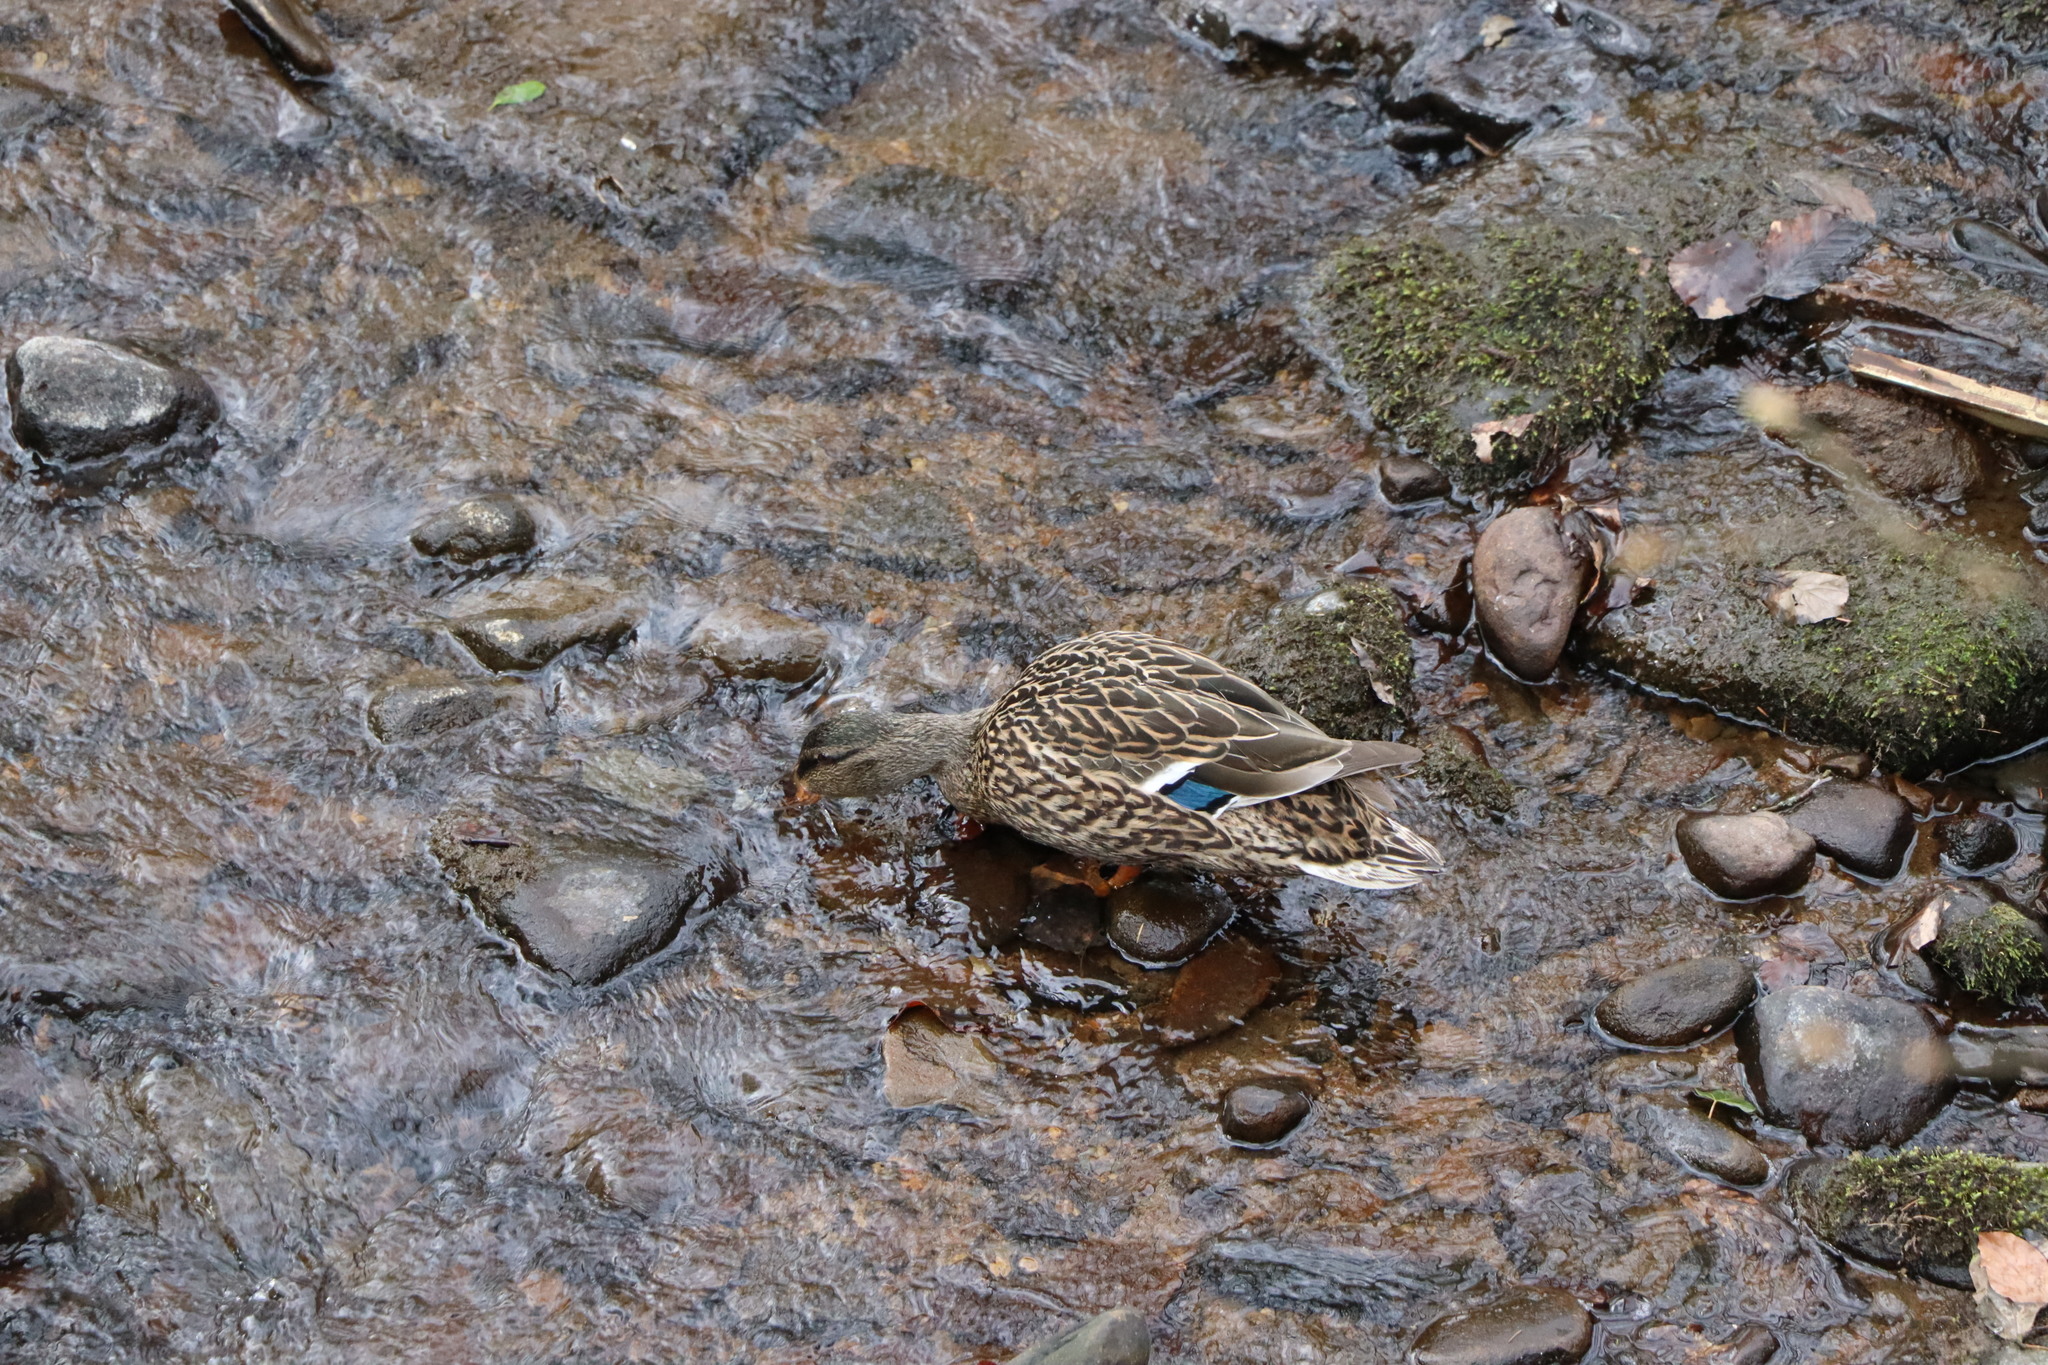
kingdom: Animalia
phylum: Chordata
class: Aves
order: Anseriformes
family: Anatidae
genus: Anas
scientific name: Anas platyrhynchos
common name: Mallard
